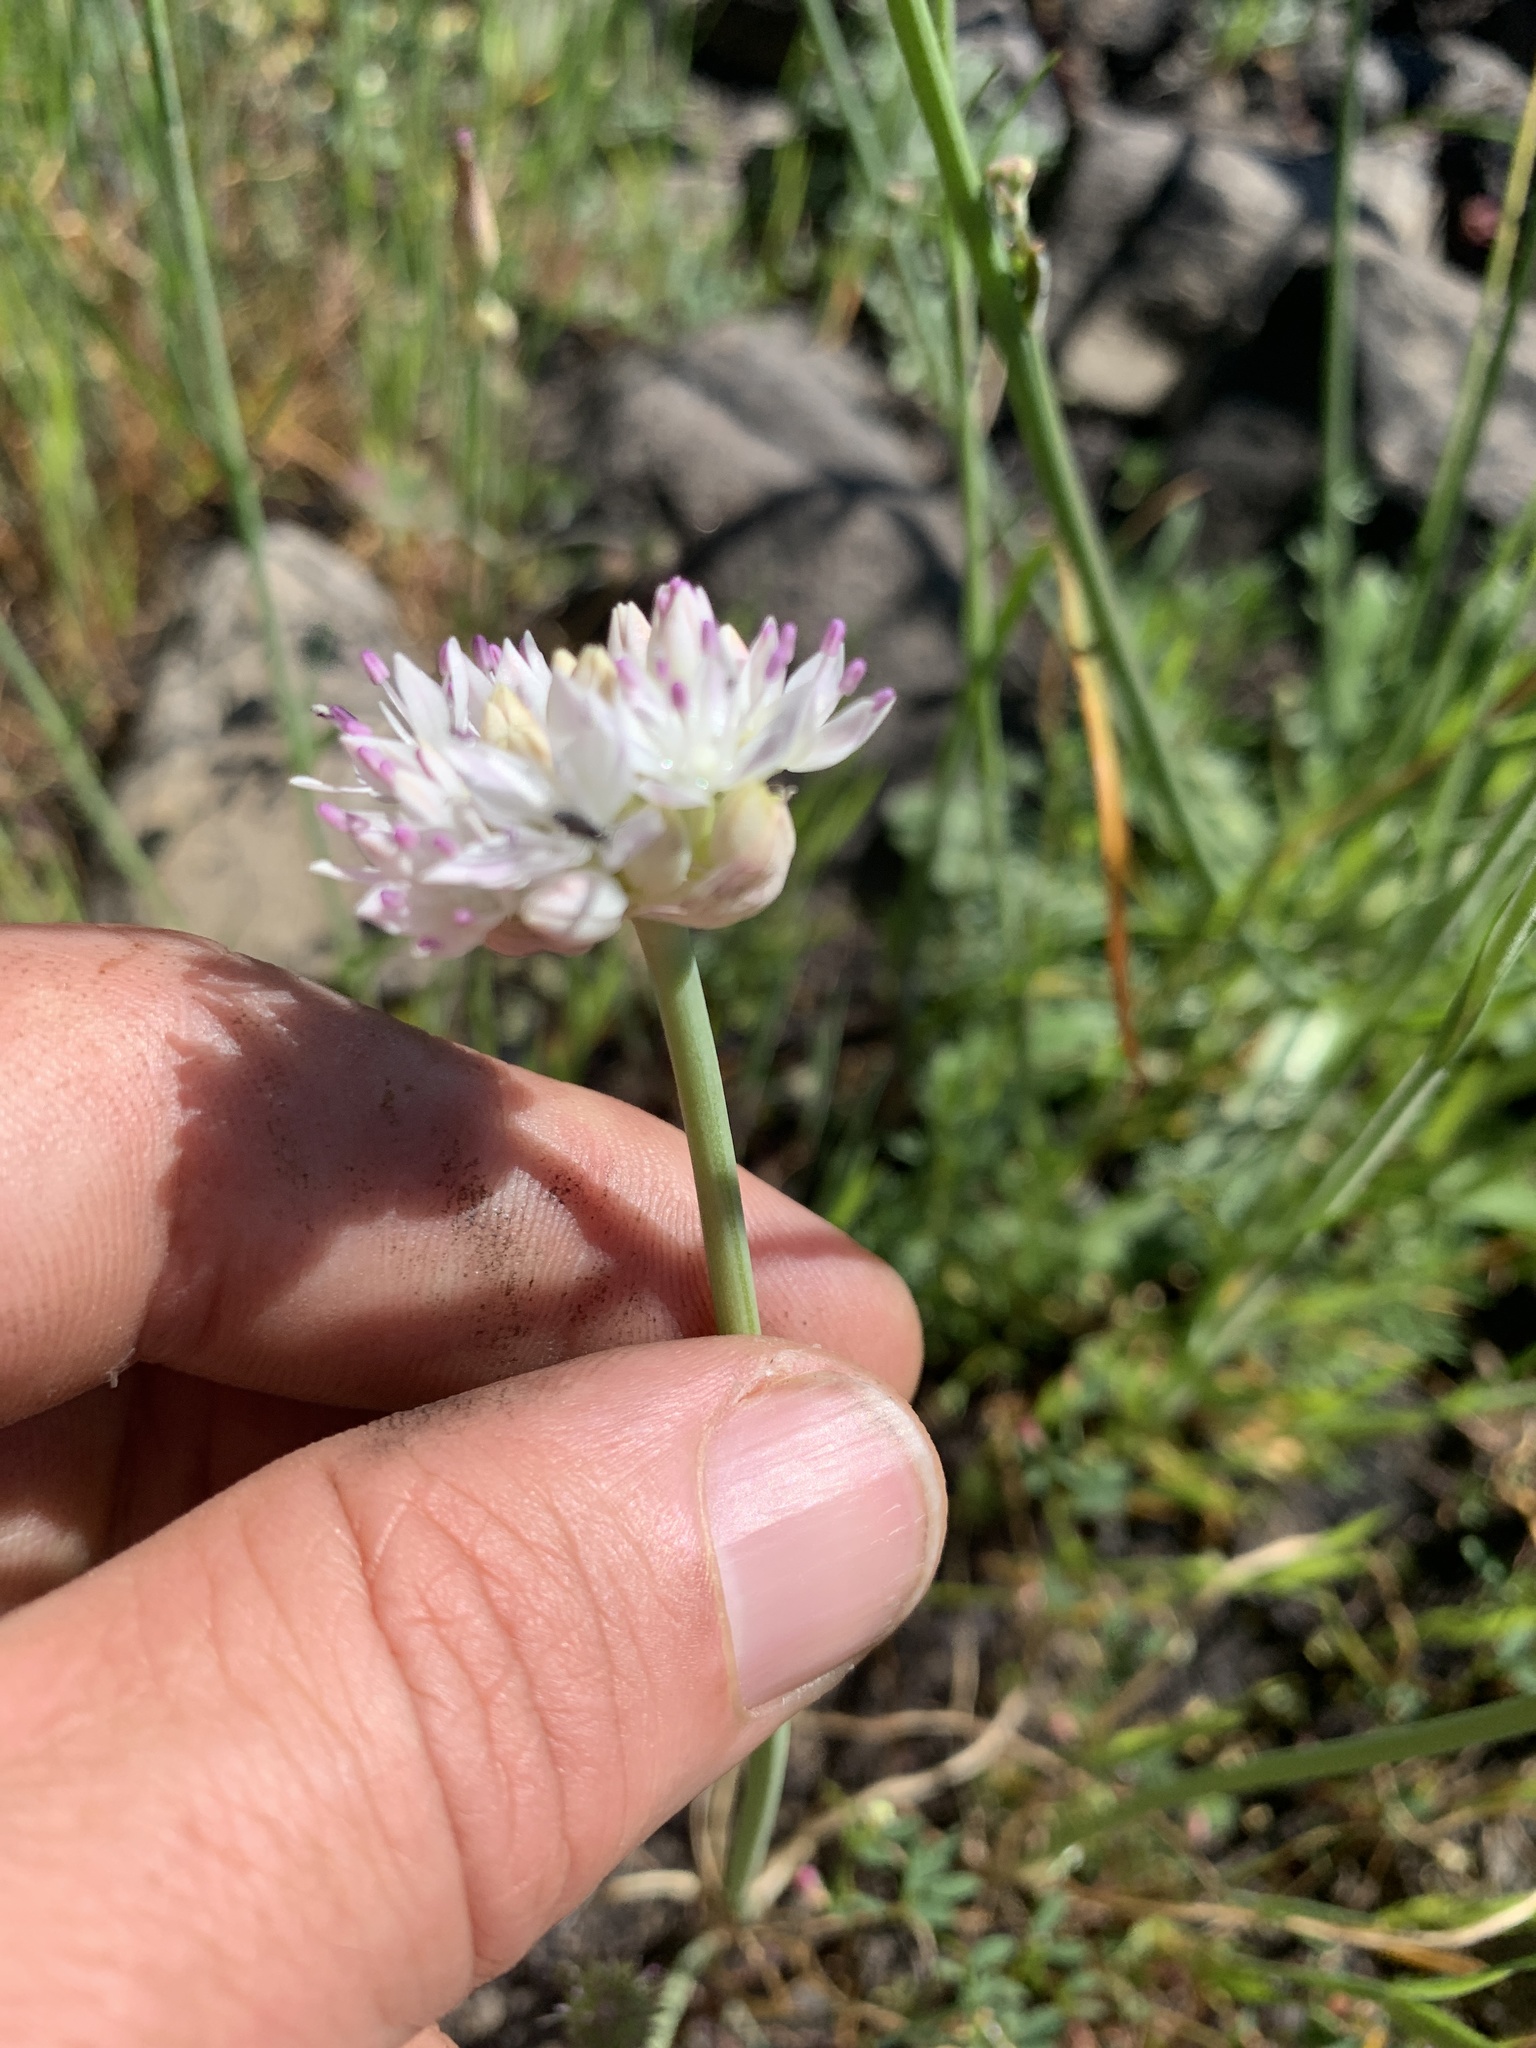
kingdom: Plantae
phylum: Tracheophyta
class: Liliopsida
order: Asparagales
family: Amaryllidaceae
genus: Allium
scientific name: Allium amplectens
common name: Narrow-leaved onion
